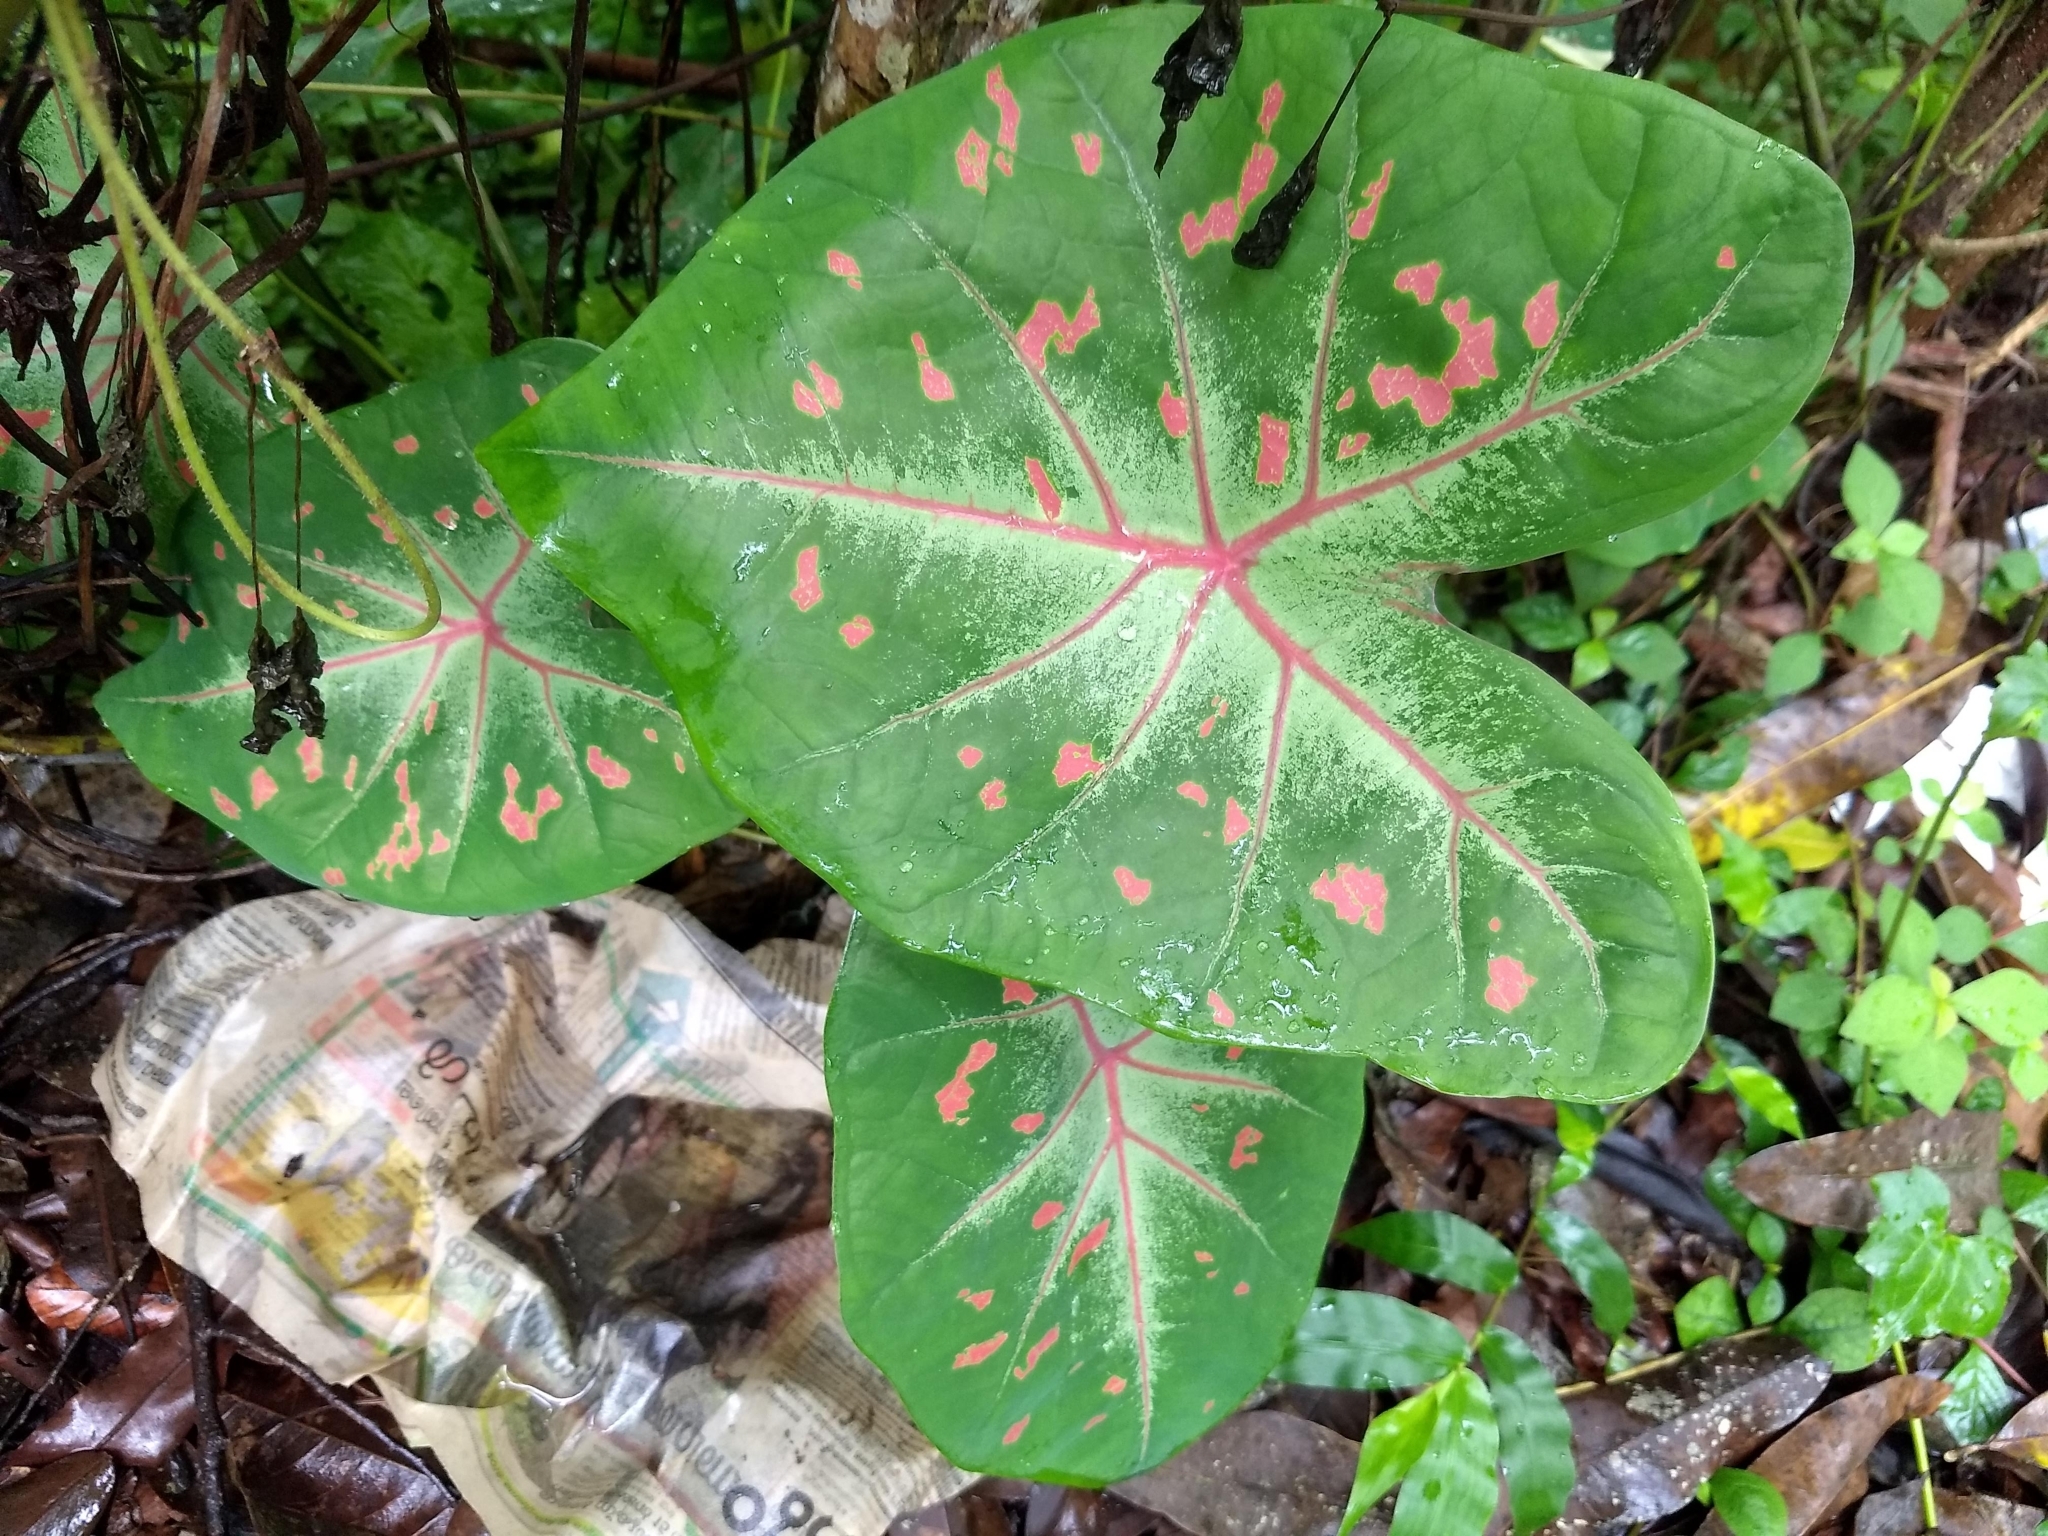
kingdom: Plantae
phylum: Tracheophyta
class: Liliopsida
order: Alismatales
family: Araceae
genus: Caladium
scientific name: Caladium bicolor
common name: Artist's pallet
